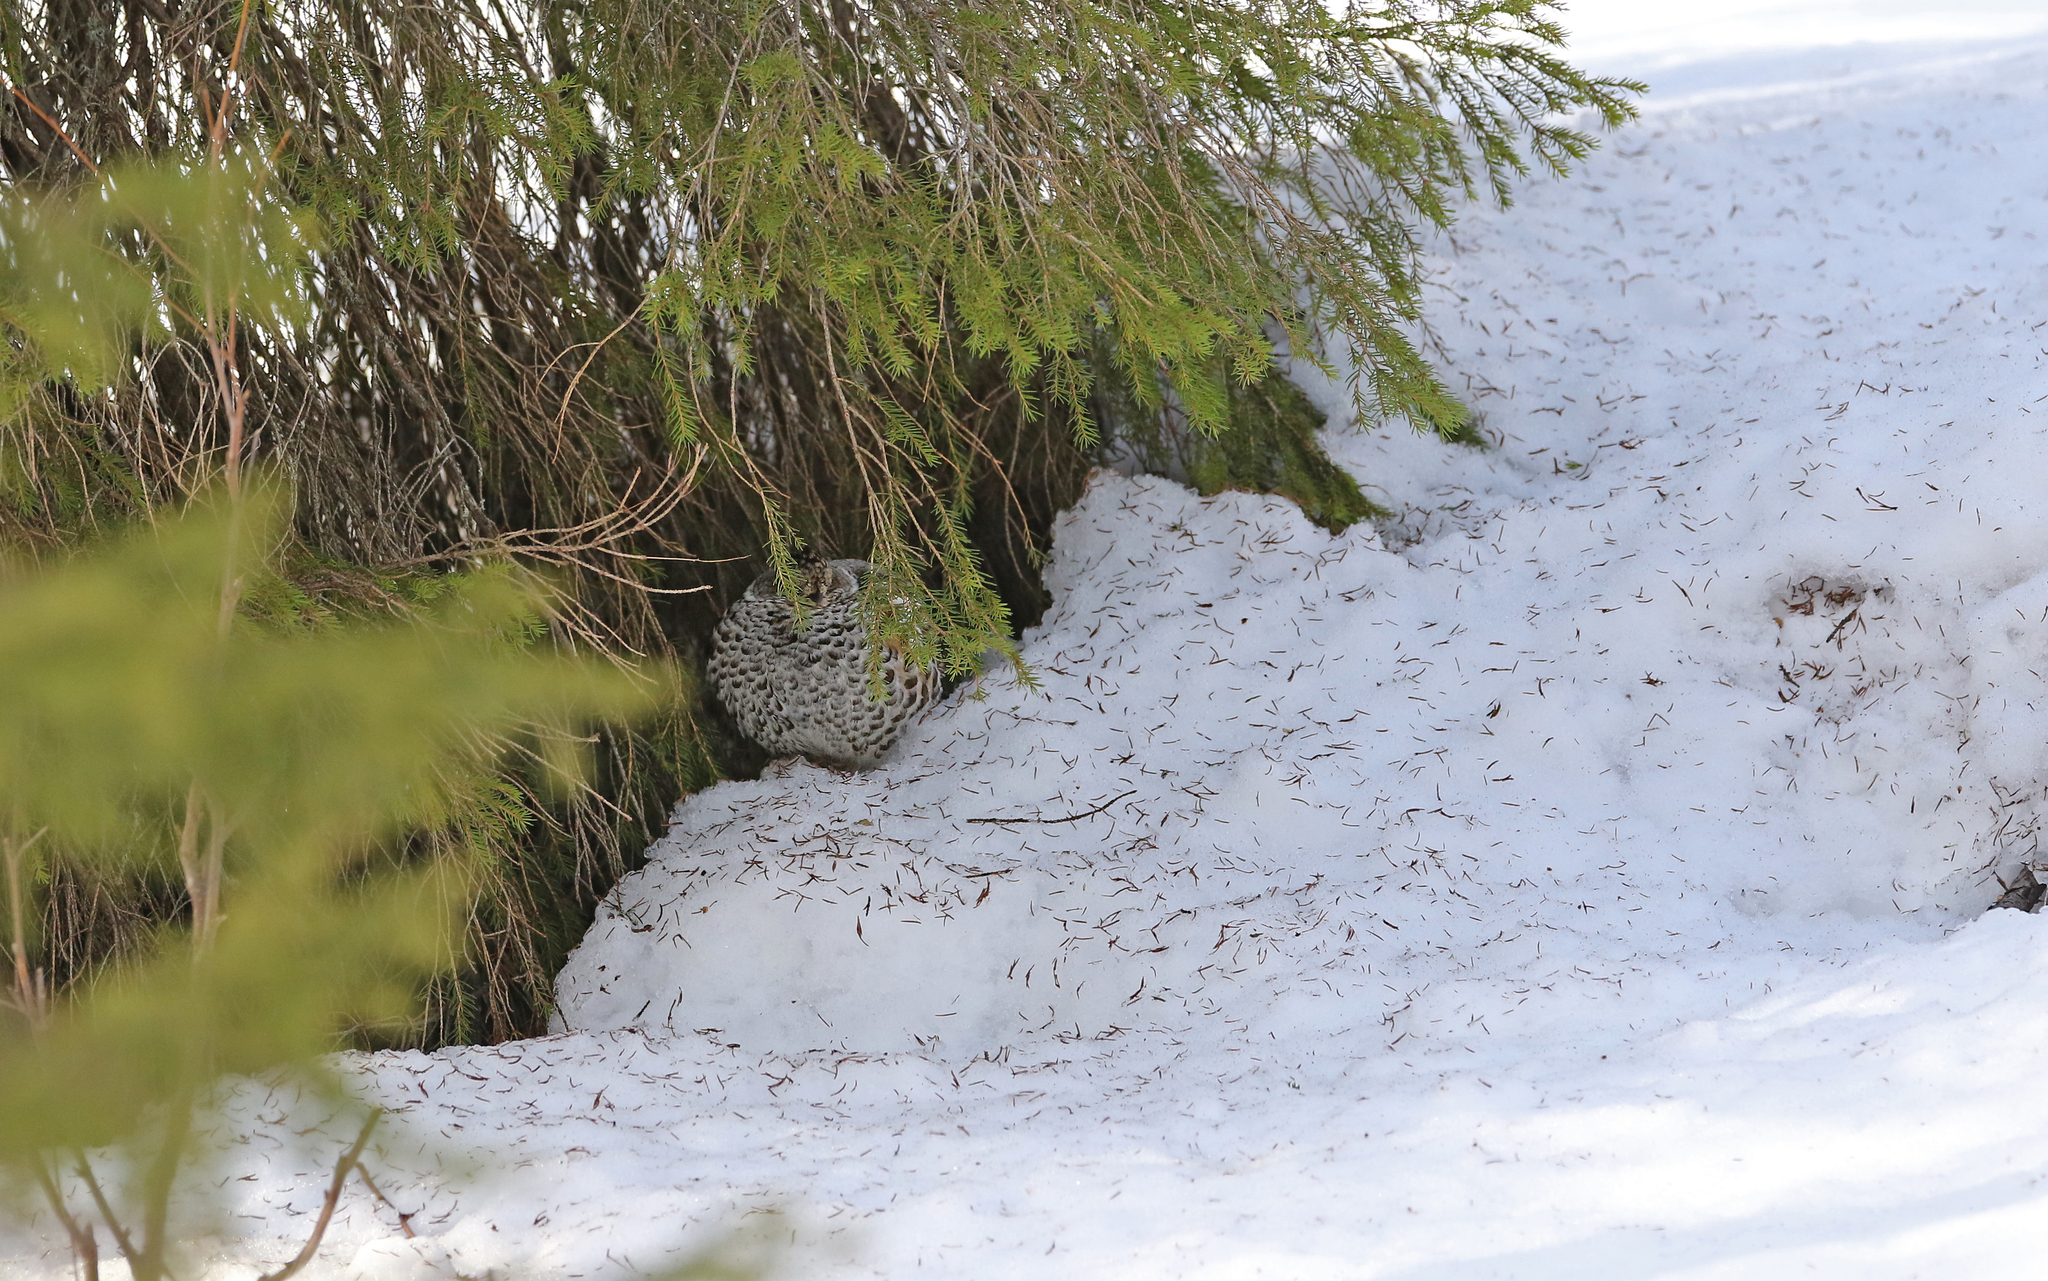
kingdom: Animalia
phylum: Chordata
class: Aves
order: Galliformes
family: Phasianidae
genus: Tetrastes
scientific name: Tetrastes bonasia
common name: Hazel grouse
